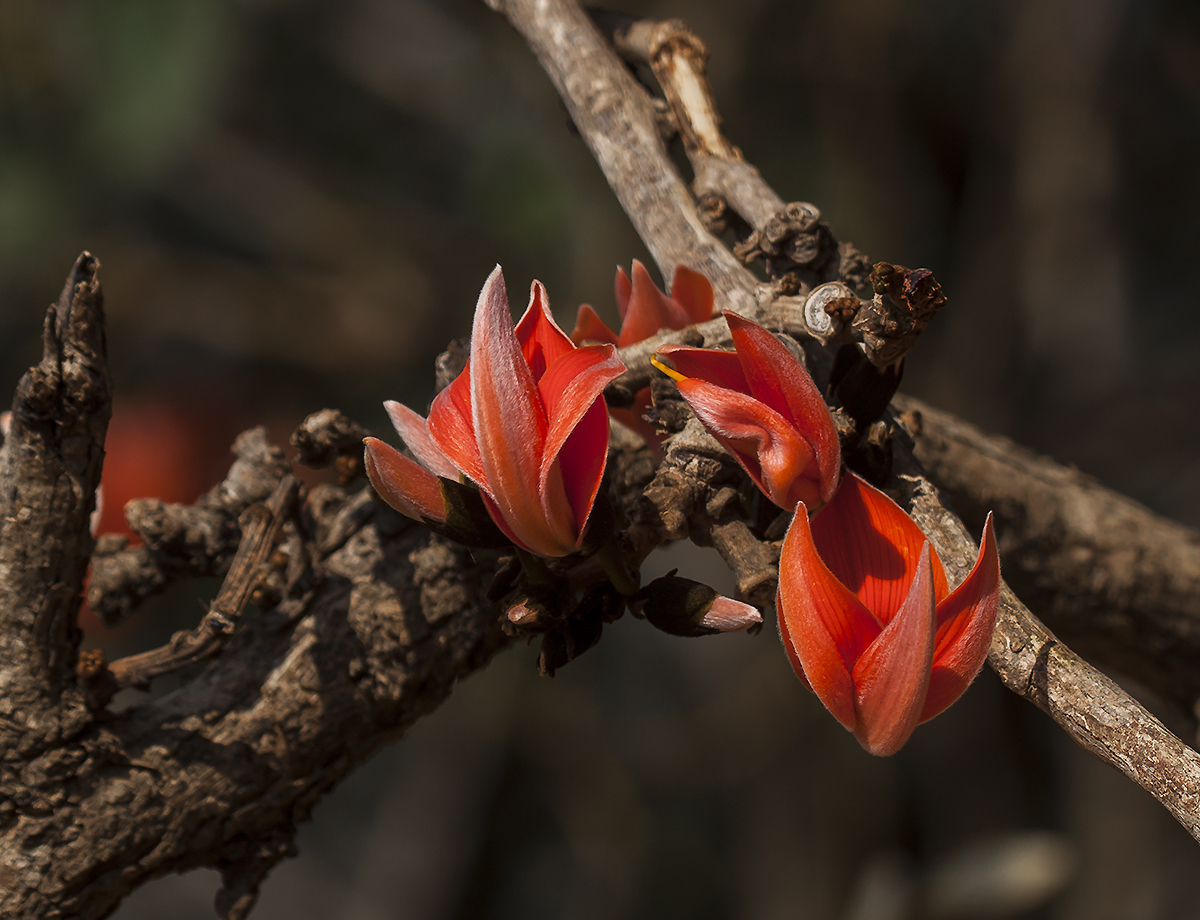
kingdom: Plantae
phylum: Tracheophyta
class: Magnoliopsida
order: Fabales
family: Fabaceae
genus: Butea
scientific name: Butea monosperma
